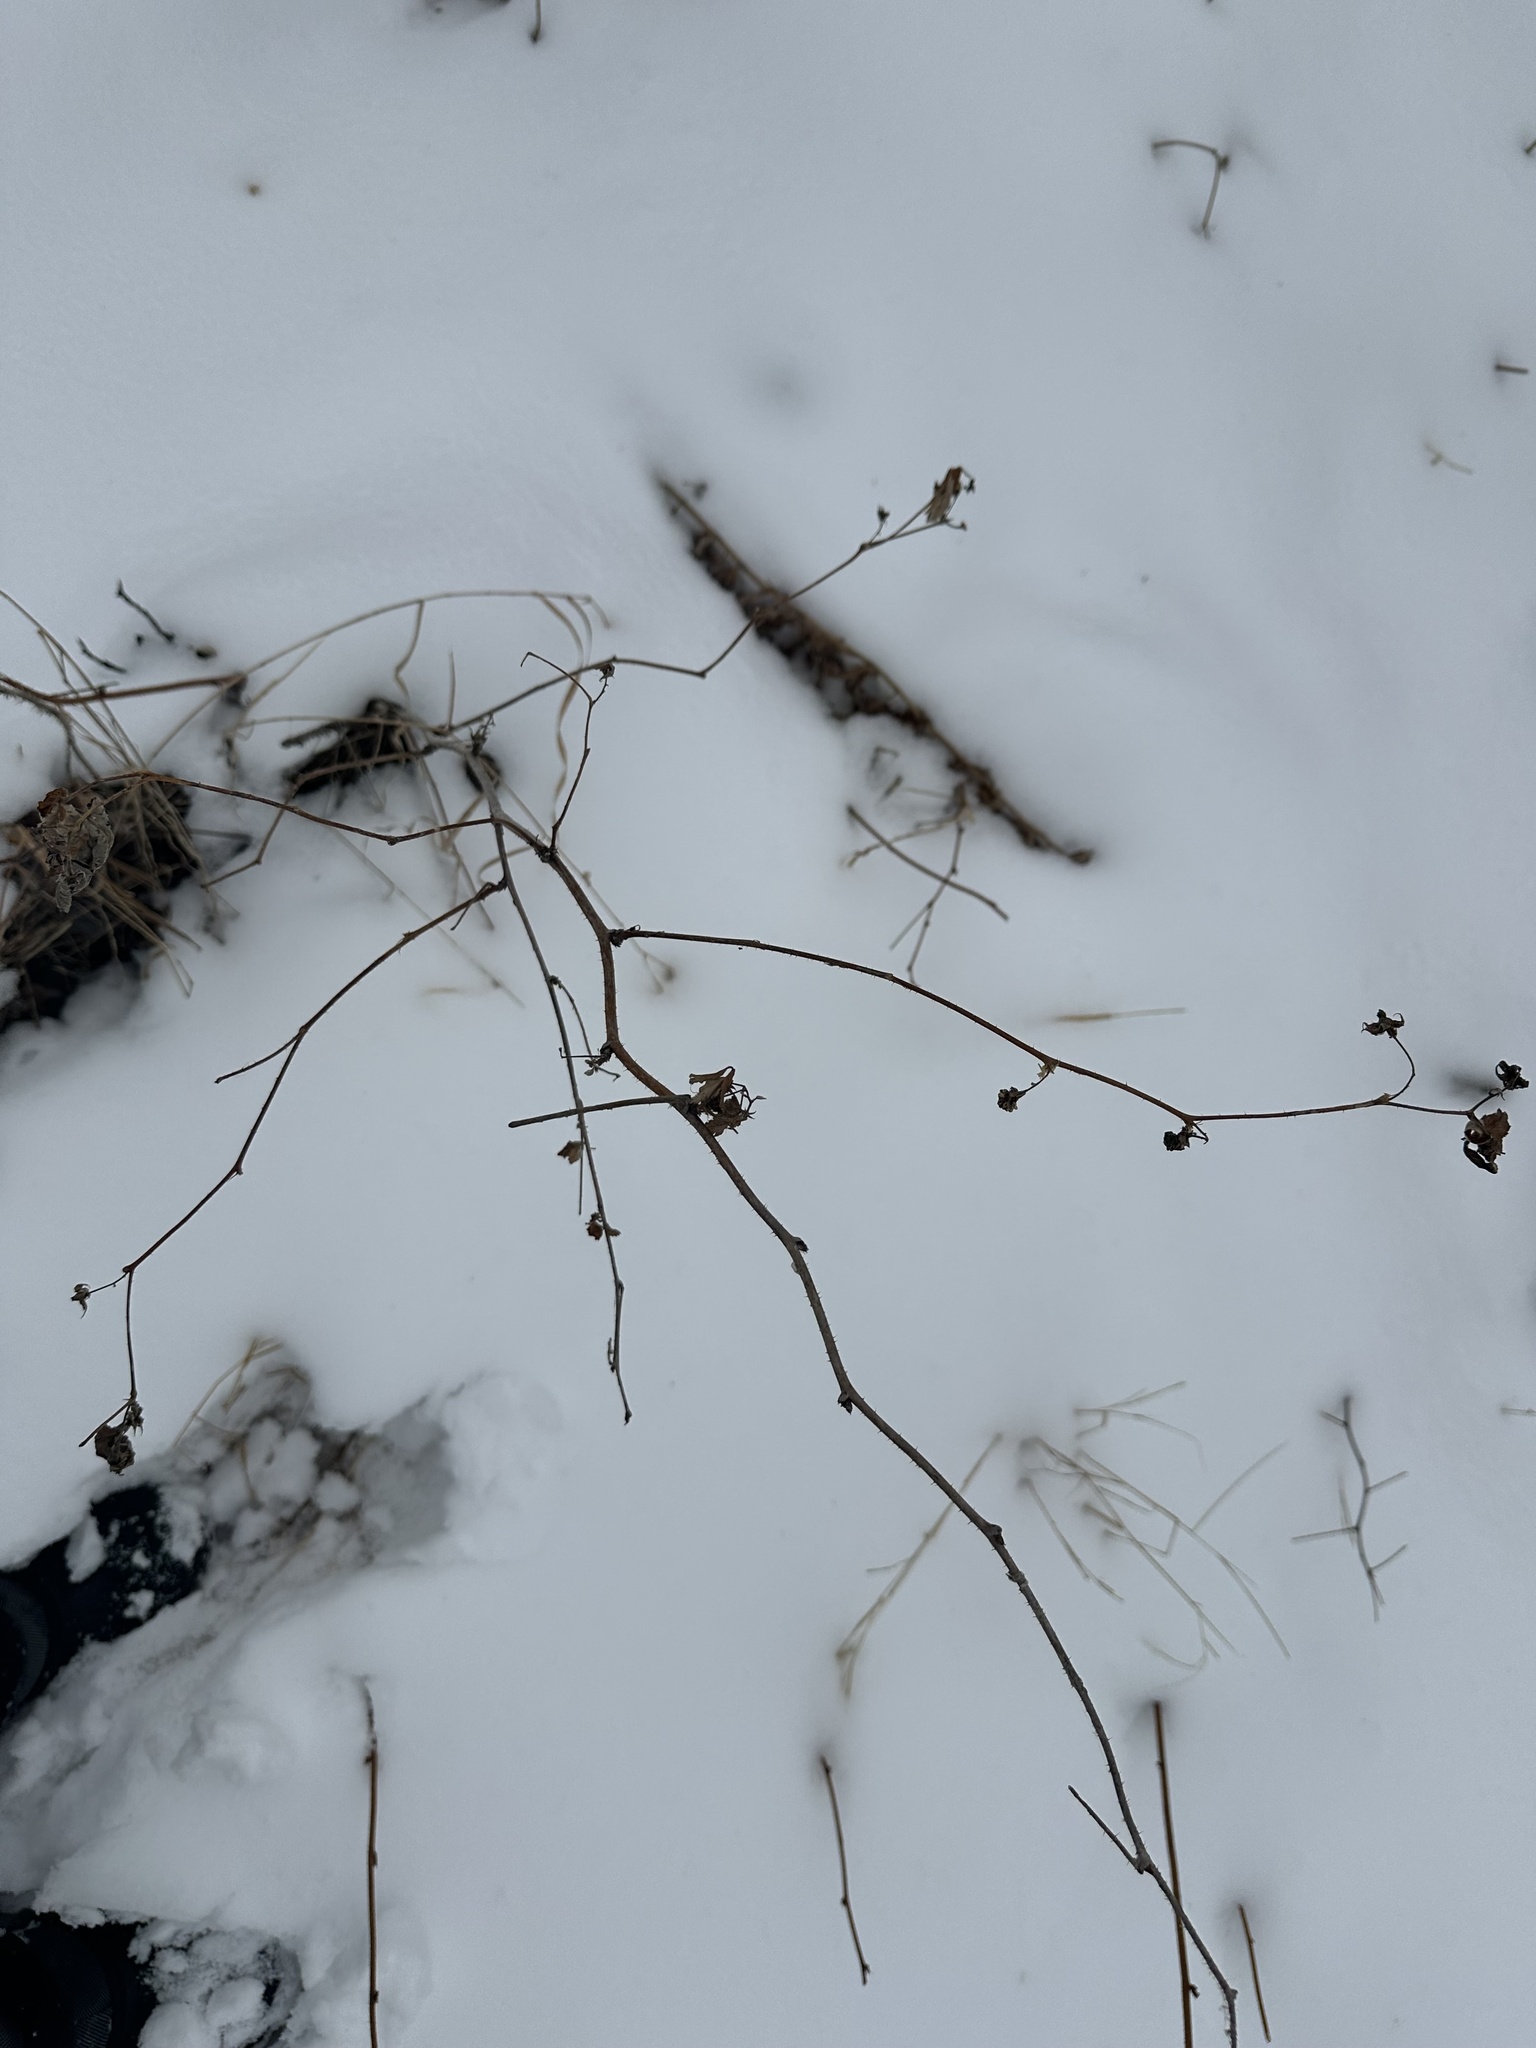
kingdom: Plantae
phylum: Tracheophyta
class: Magnoliopsida
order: Rosales
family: Rosaceae
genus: Rubus
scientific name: Rubus idaeus
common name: Raspberry
